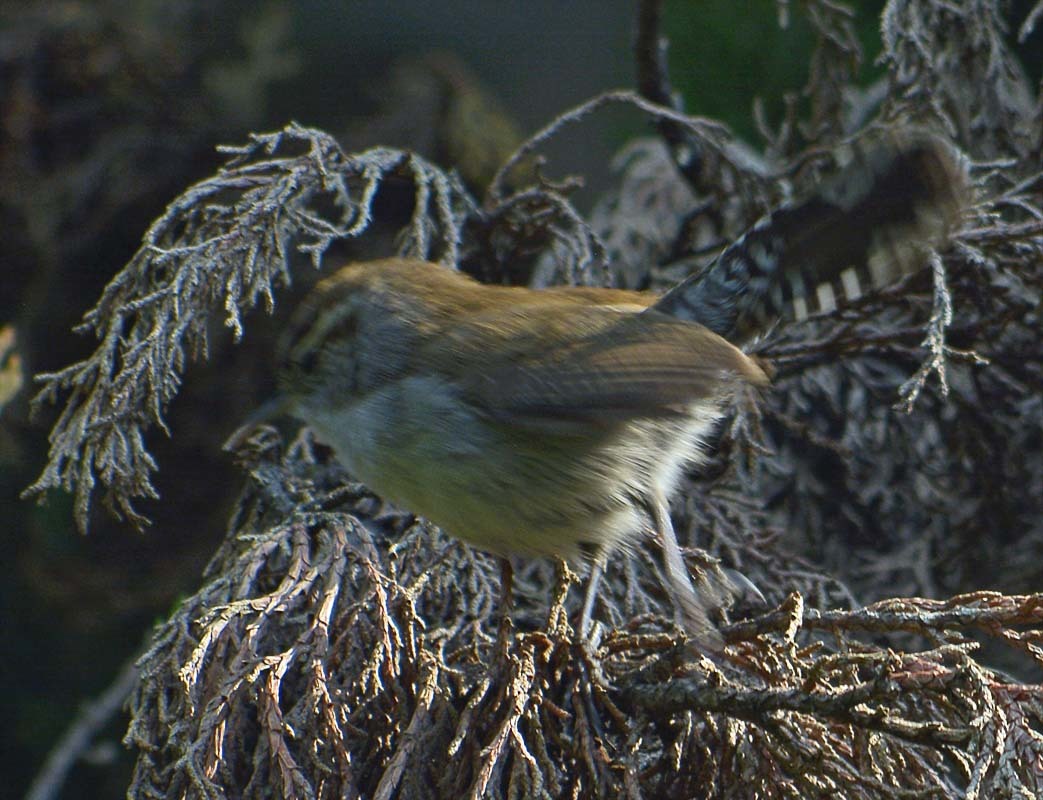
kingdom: Animalia
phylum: Chordata
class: Aves
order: Passeriformes
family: Troglodytidae
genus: Thryomanes
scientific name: Thryomanes bewickii
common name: Bewick's wren
